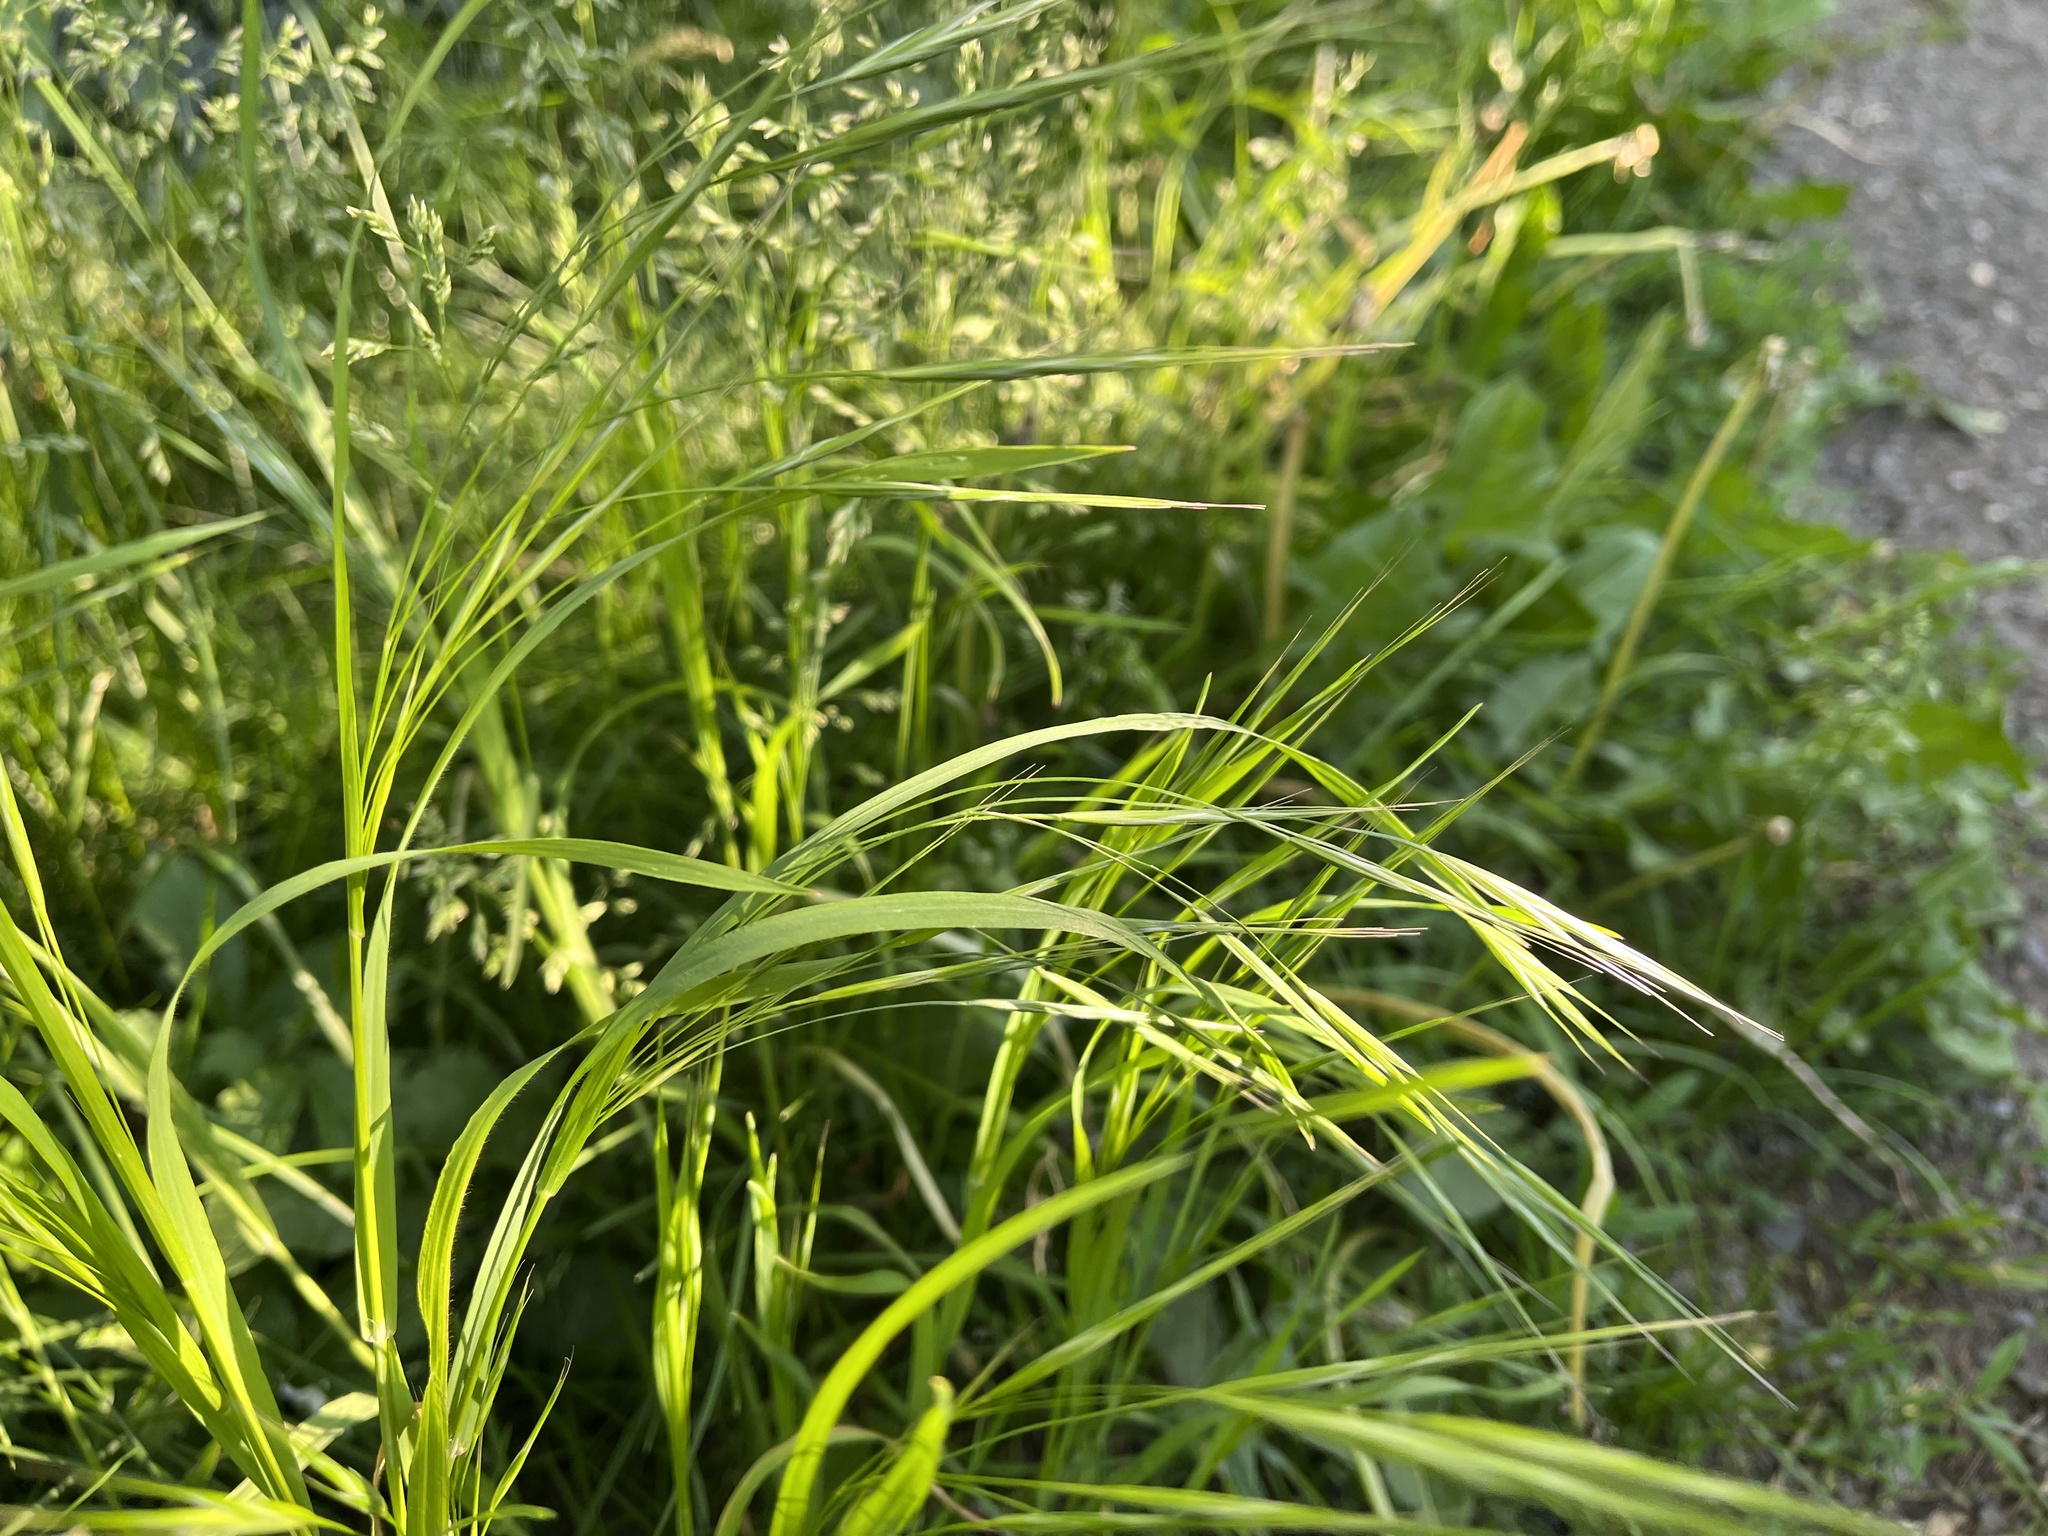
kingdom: Plantae
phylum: Tracheophyta
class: Liliopsida
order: Poales
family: Poaceae
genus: Bromus
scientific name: Bromus sterilis
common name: Poverty brome
